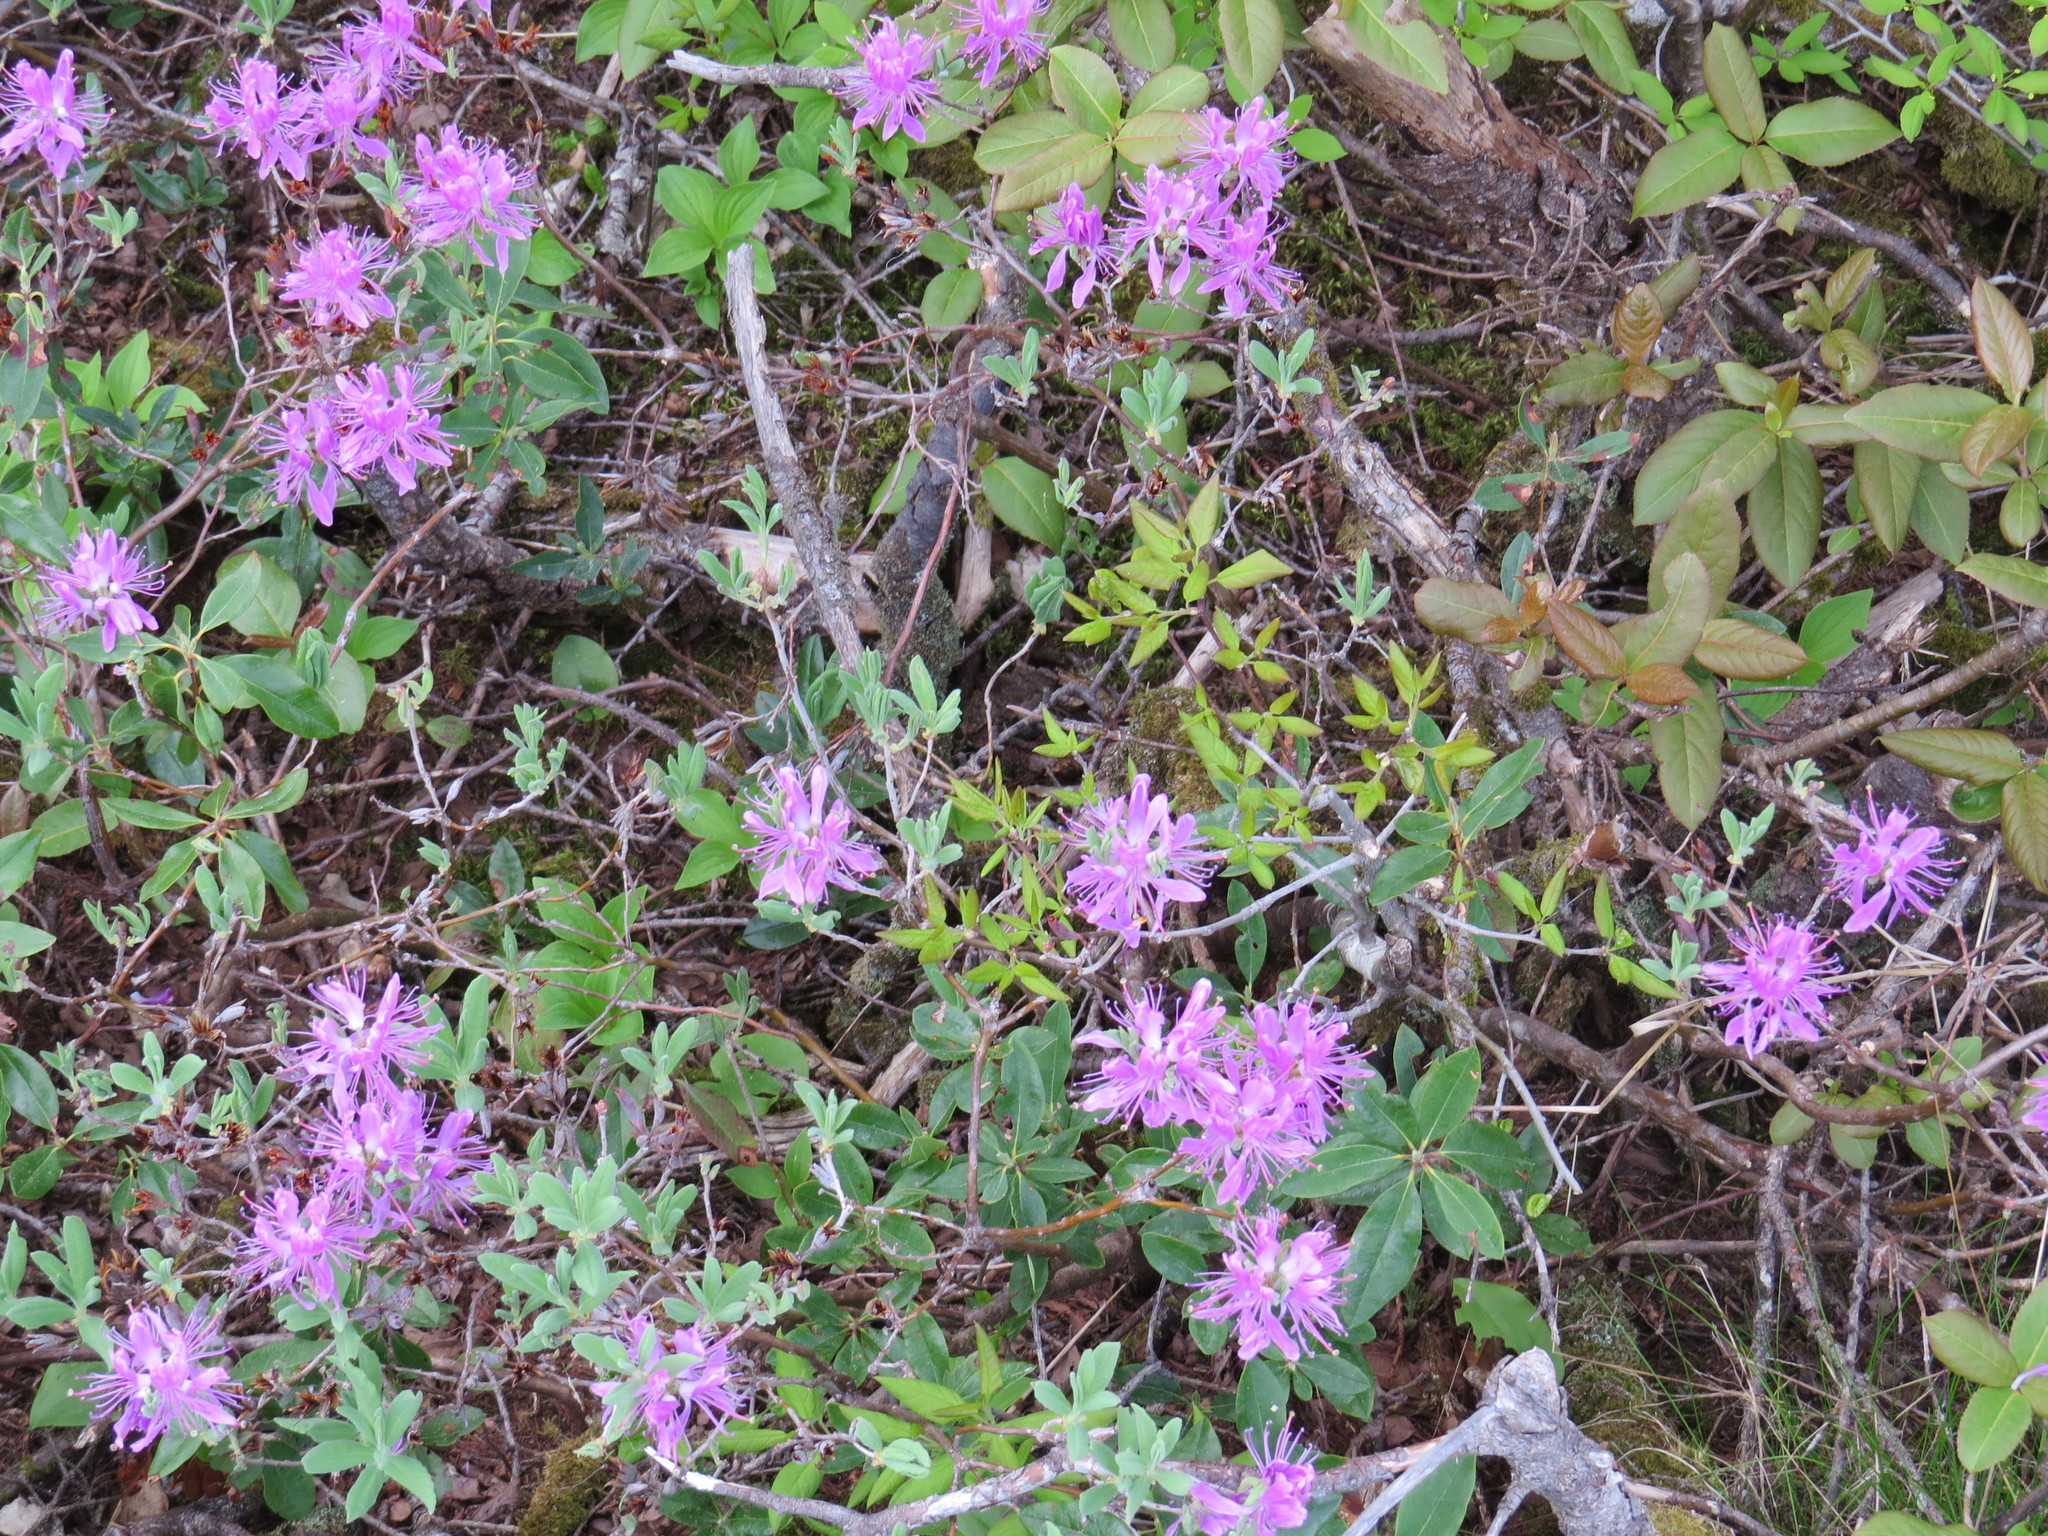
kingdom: Plantae
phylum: Tracheophyta
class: Magnoliopsida
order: Ericales
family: Ericaceae
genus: Rhododendron
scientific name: Rhododendron canadense
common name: Rhodora
